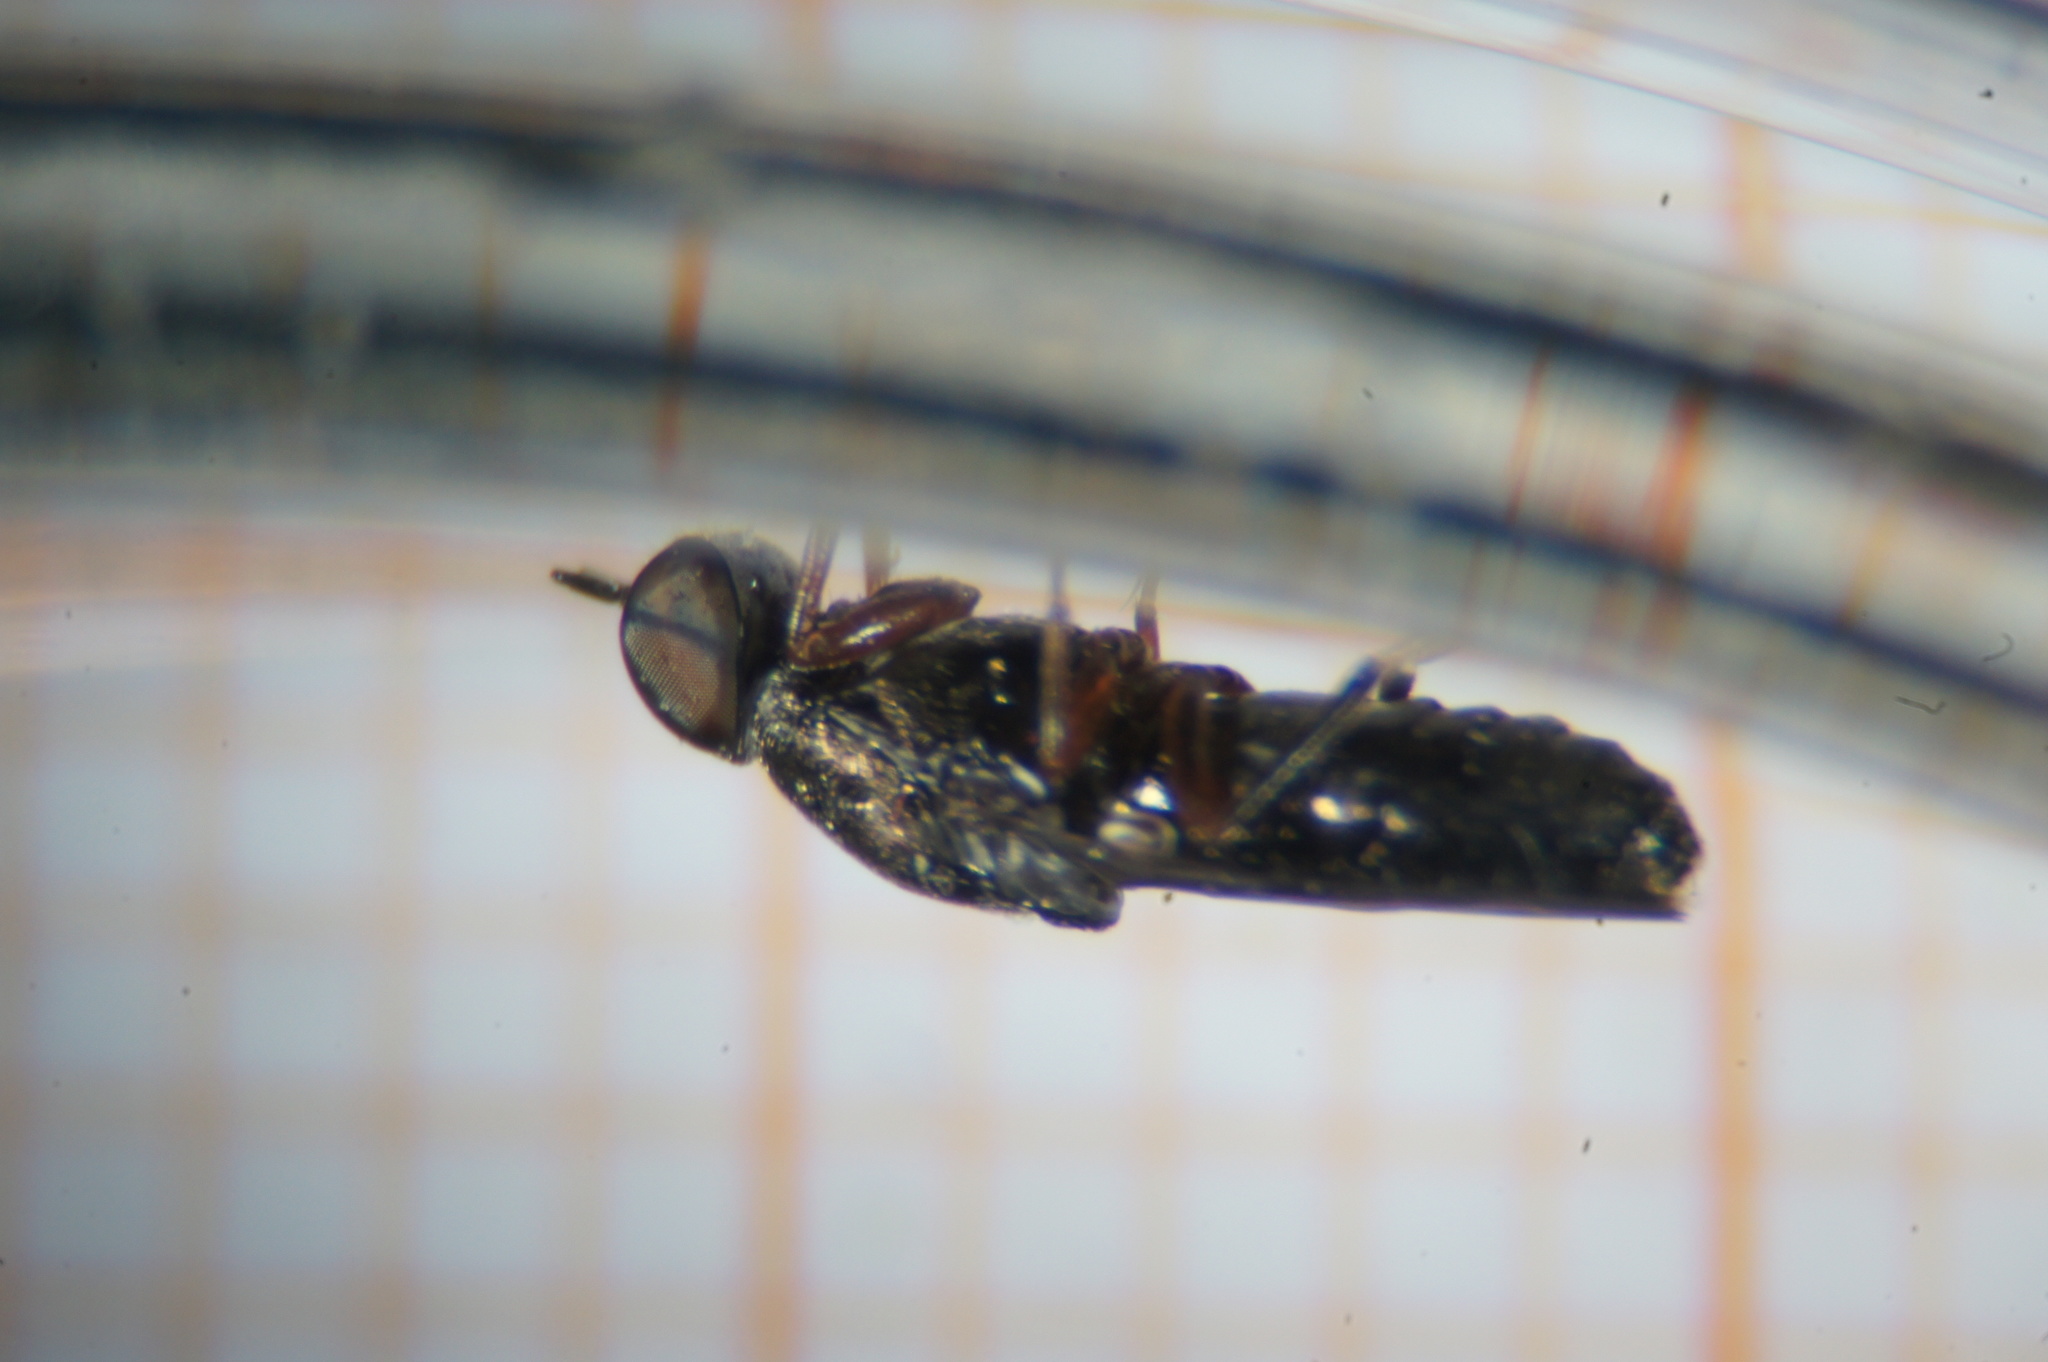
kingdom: Animalia
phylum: Arthropoda
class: Insecta
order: Diptera
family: Scenopinidae
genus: Scenopinus
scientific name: Scenopinus fenestralis
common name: House windowfly
